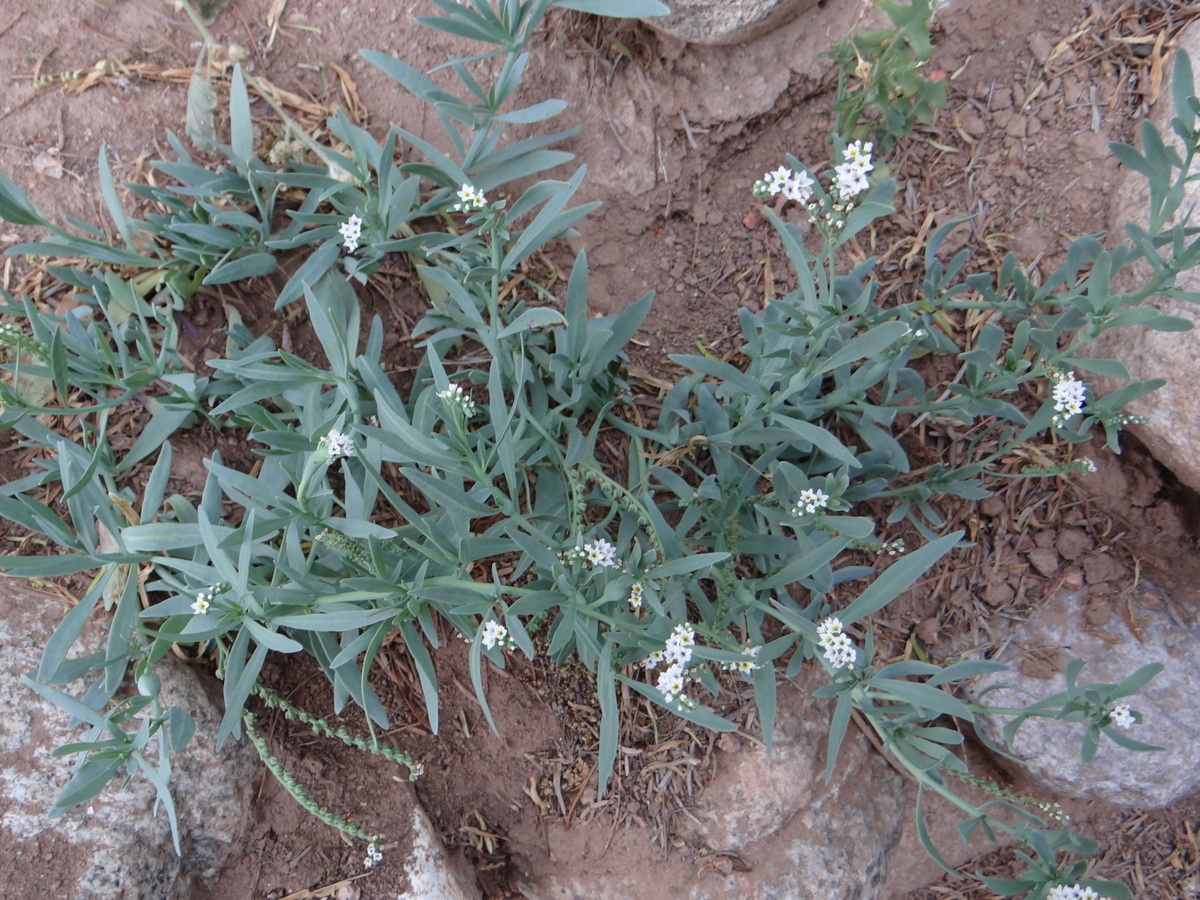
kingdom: Plantae
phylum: Tracheophyta
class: Magnoliopsida
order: Boraginales
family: Heliotropiaceae
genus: Heliotropium
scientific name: Heliotropium curassavicum
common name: Seaside heliotrope
